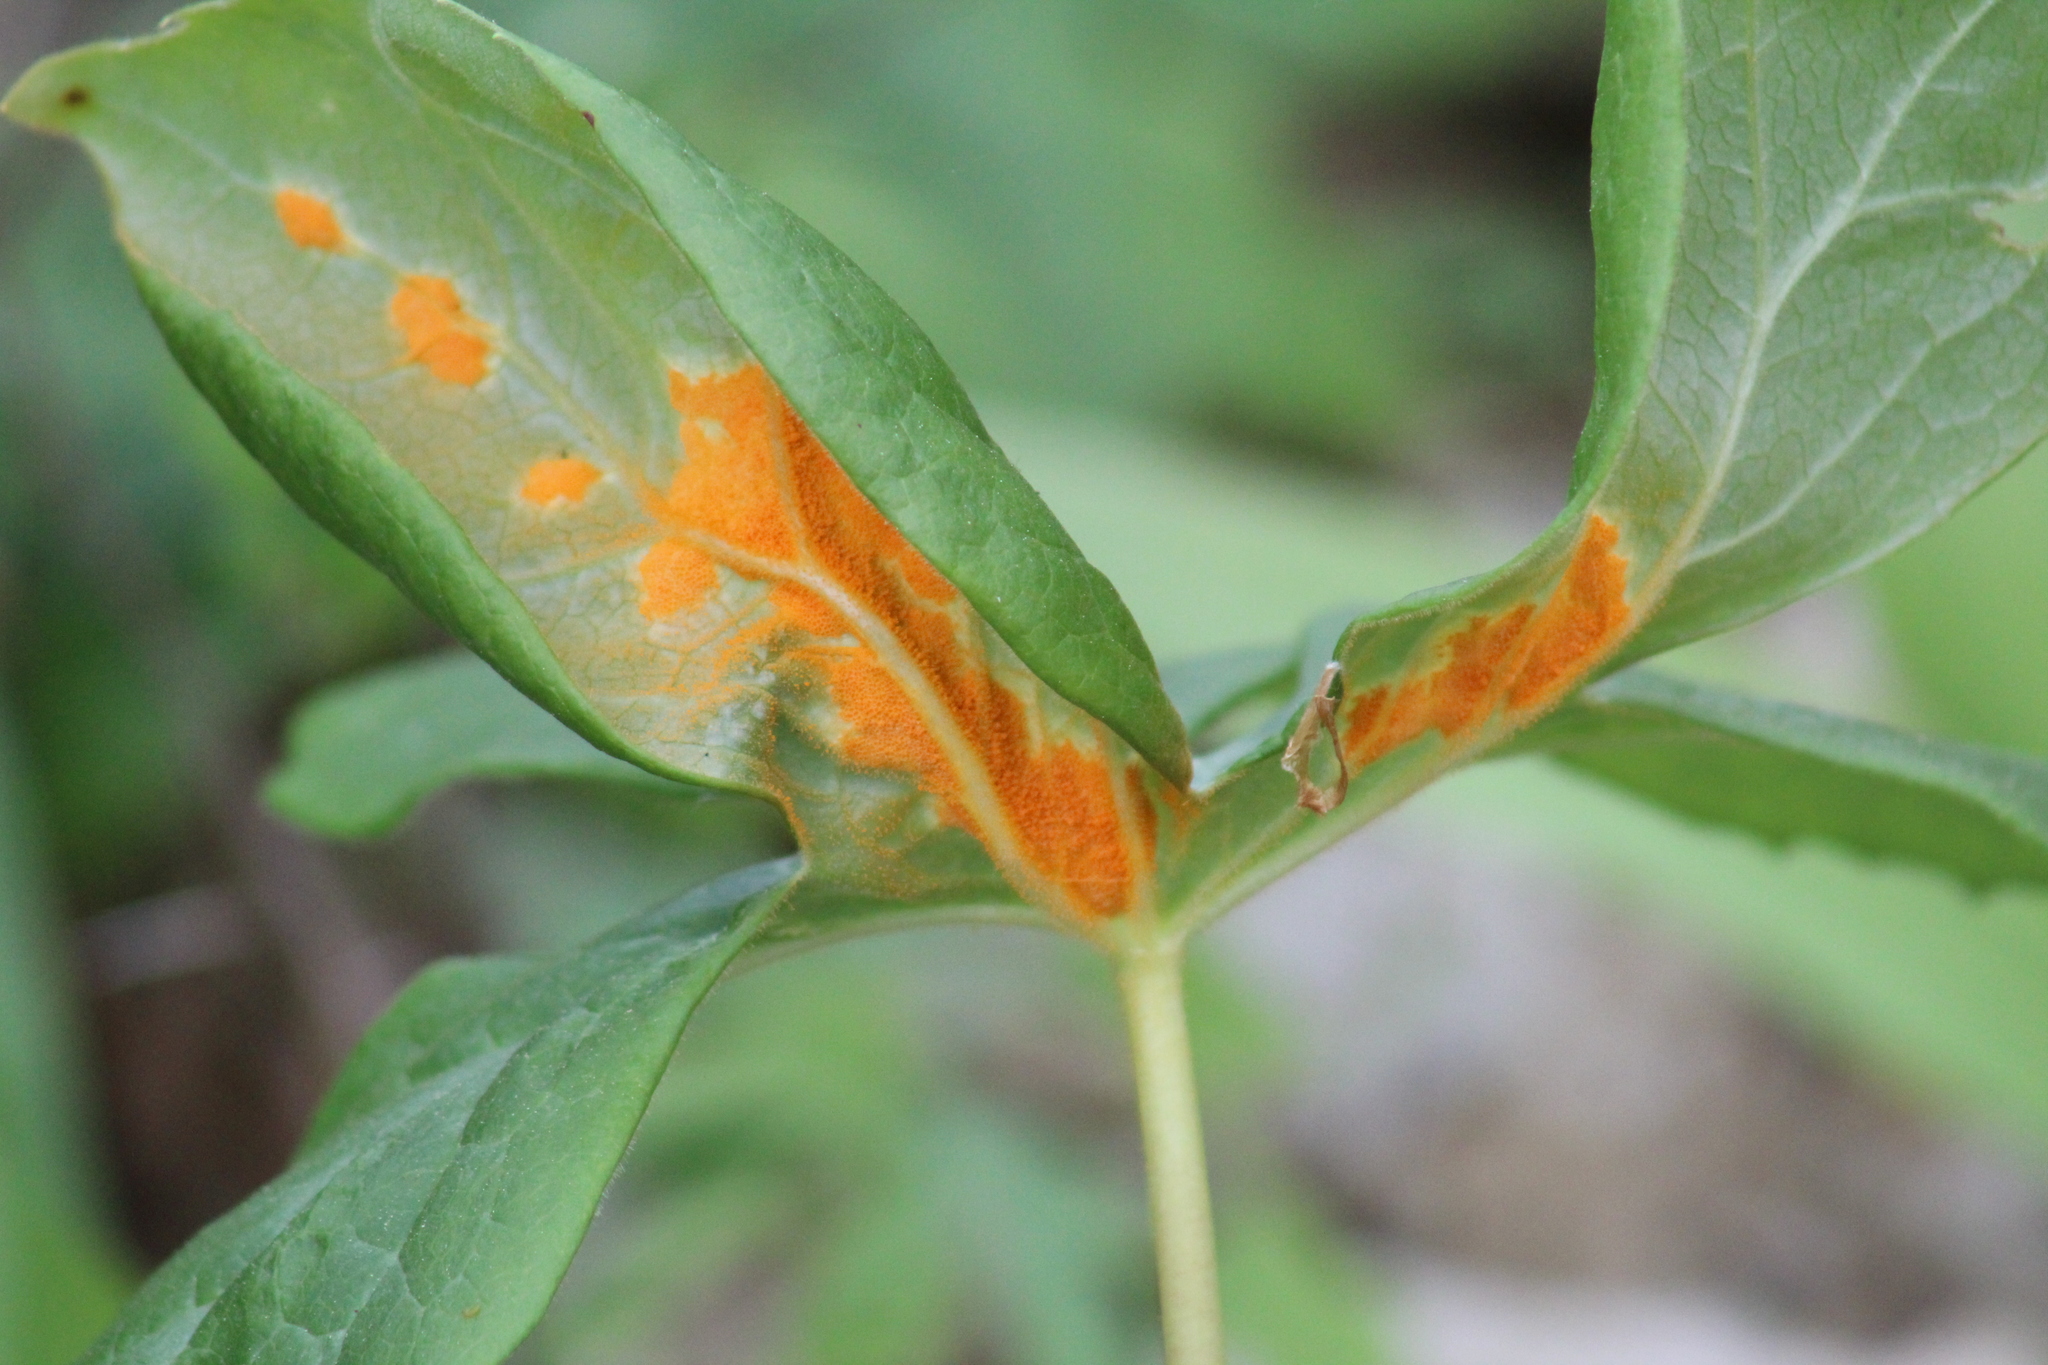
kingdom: Fungi
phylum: Basidiomycota
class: Pucciniomycetes
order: Pucciniales
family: Pucciniaceae
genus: Puccinia
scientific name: Puccinia podophylli
